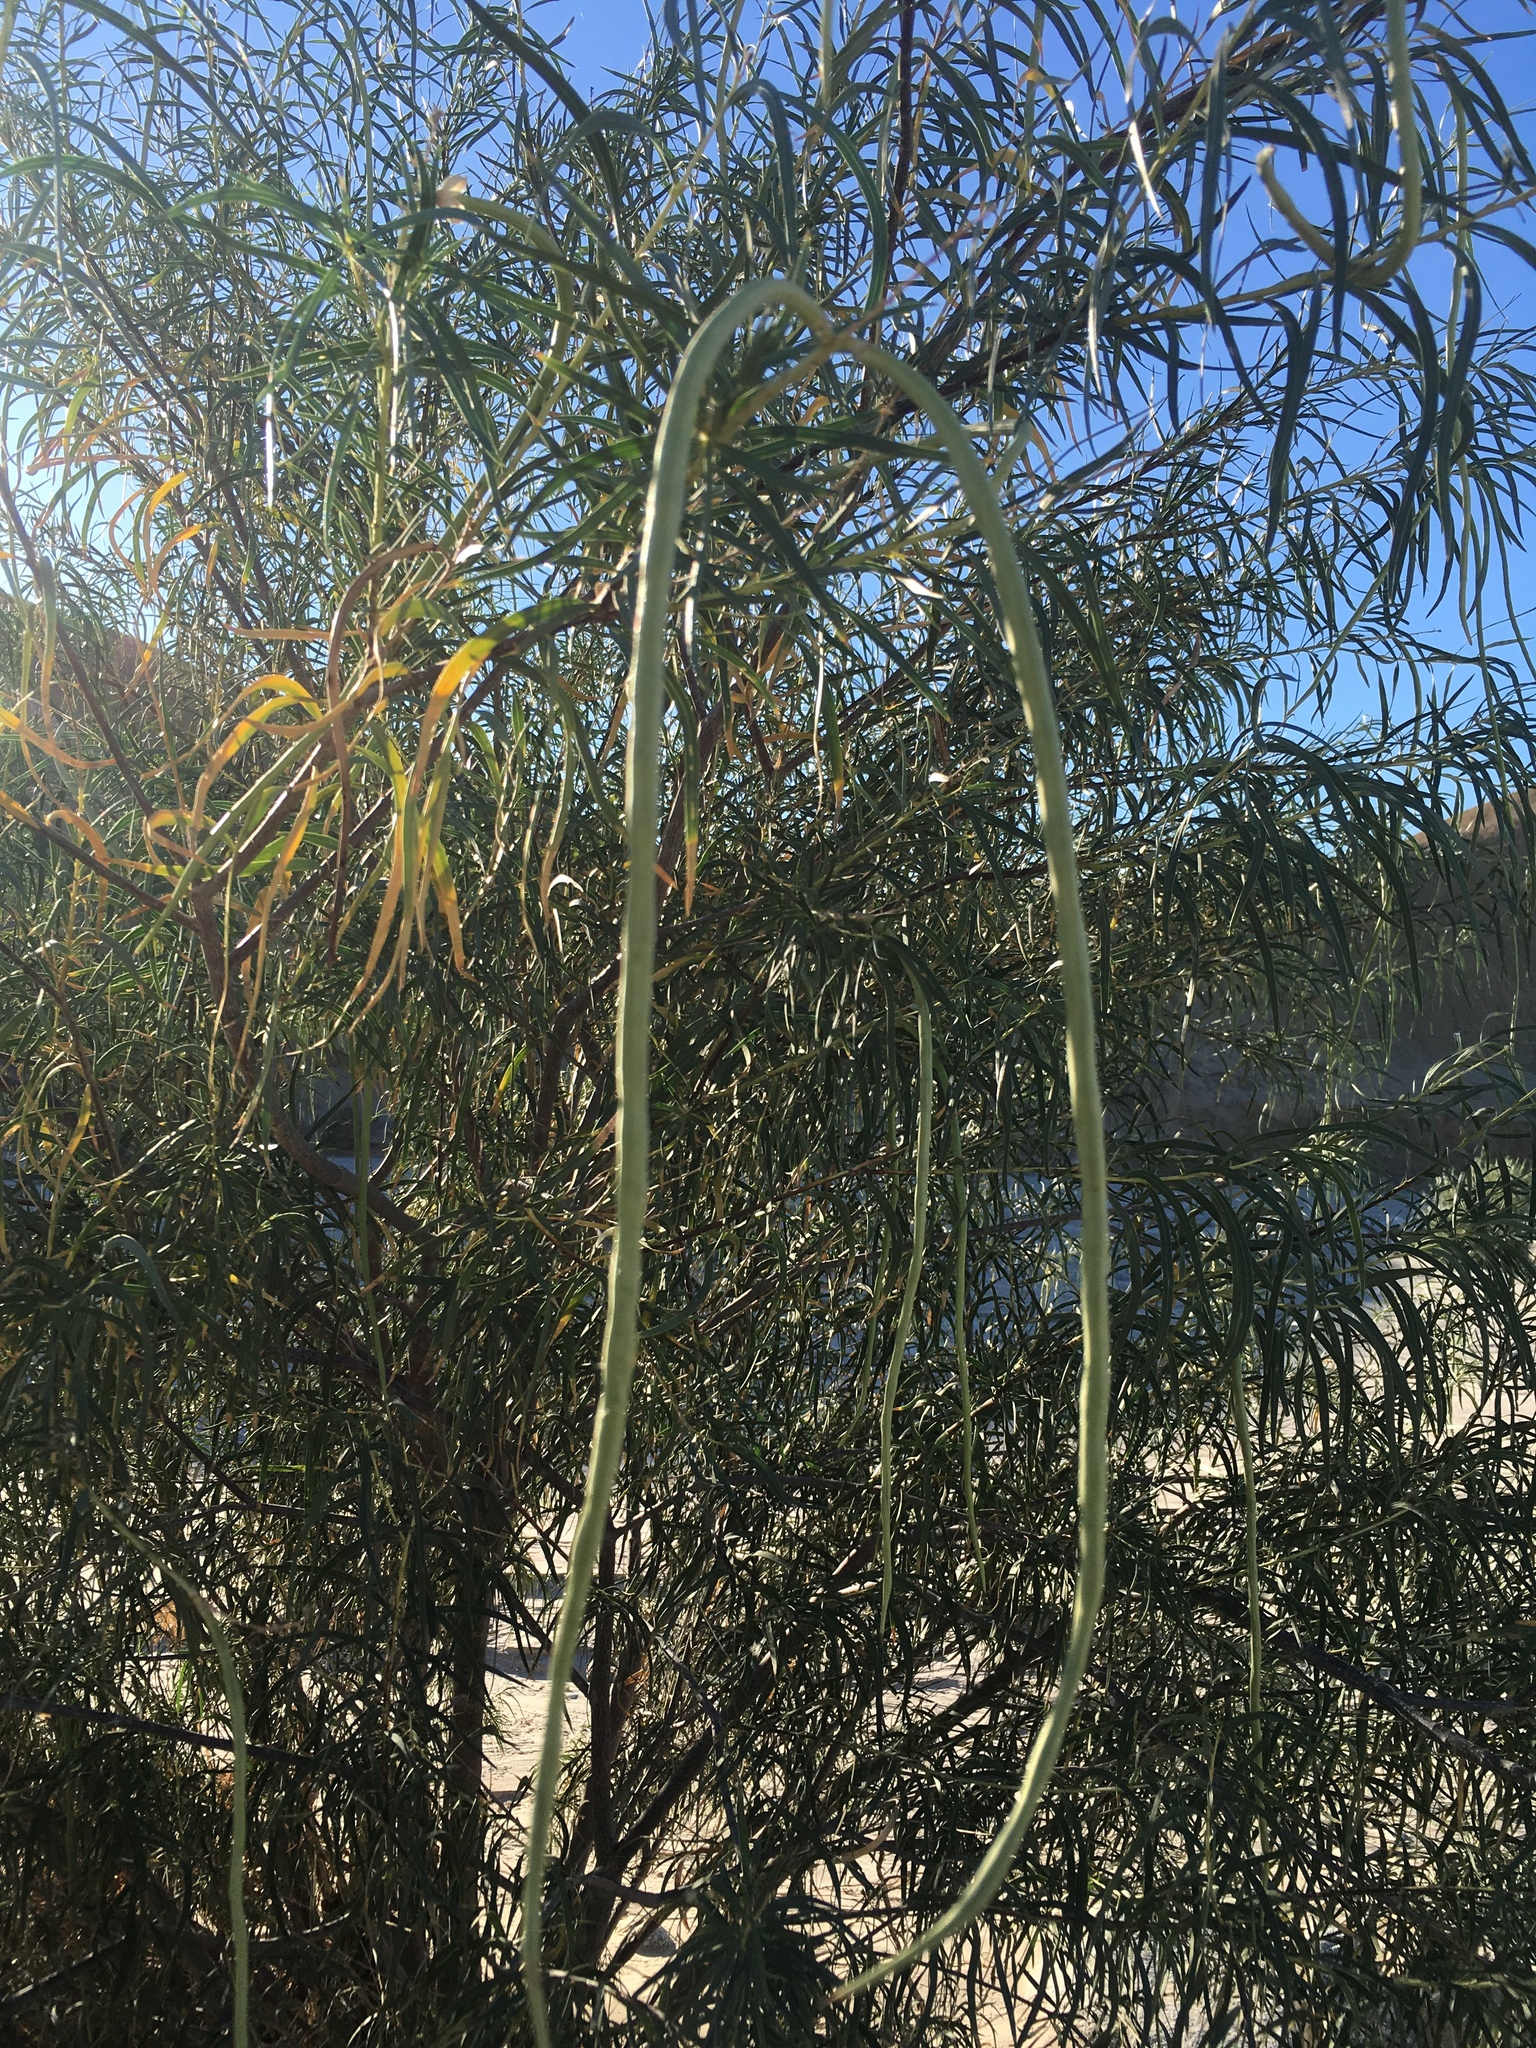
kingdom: Plantae
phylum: Tracheophyta
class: Magnoliopsida
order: Lamiales
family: Bignoniaceae
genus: Chilopsis
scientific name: Chilopsis linearis
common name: Desert-willow
